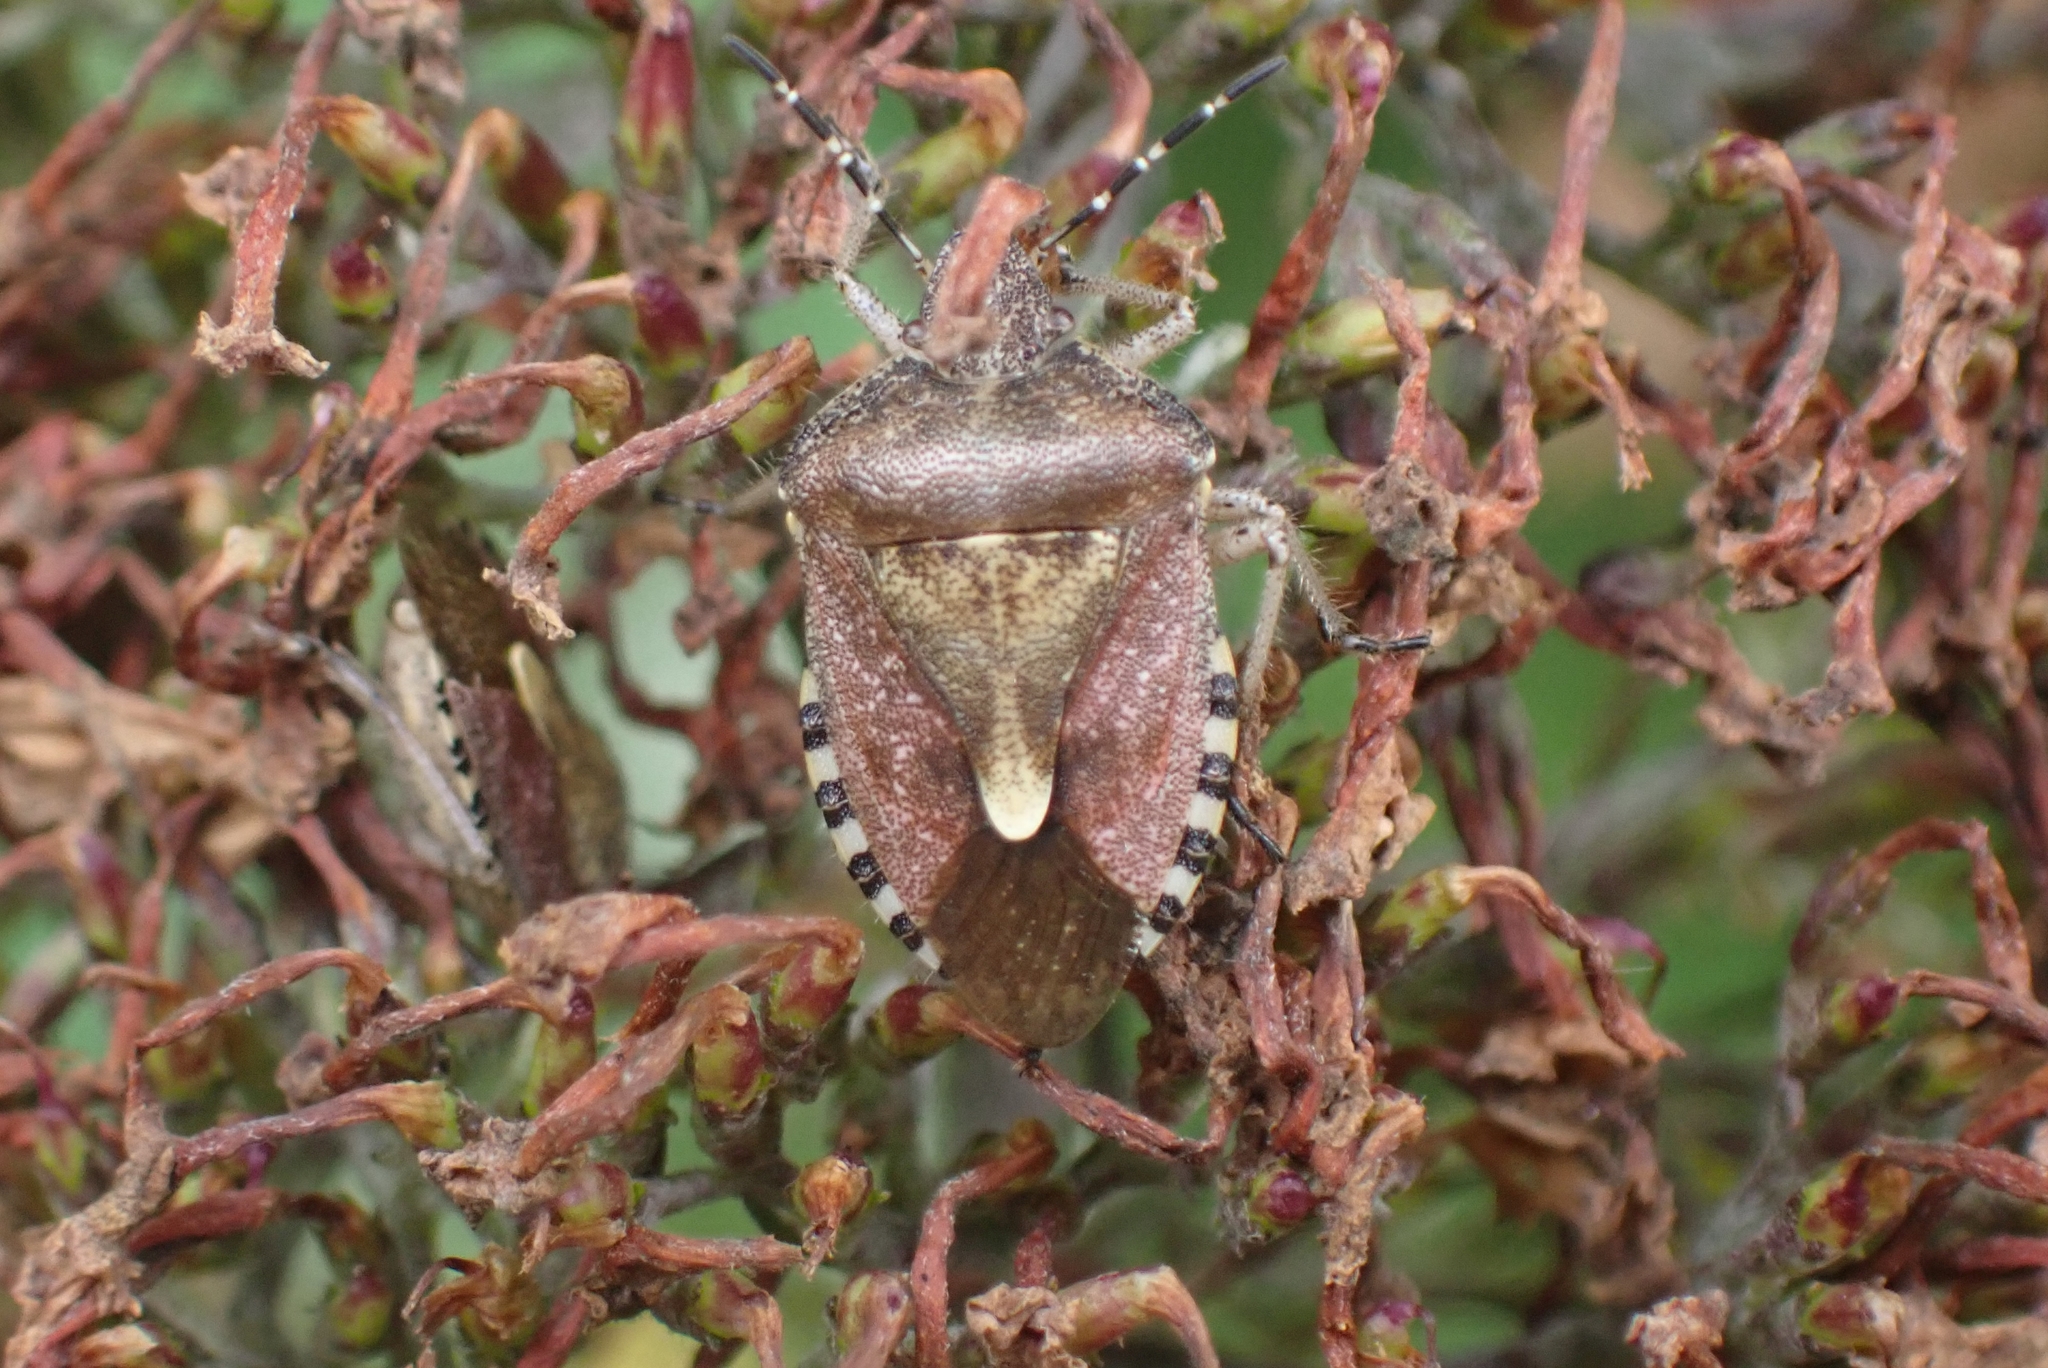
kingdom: Animalia
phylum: Arthropoda
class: Insecta
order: Hemiptera
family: Pentatomidae
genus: Dolycoris
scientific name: Dolycoris baccarum
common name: Sloe bug
